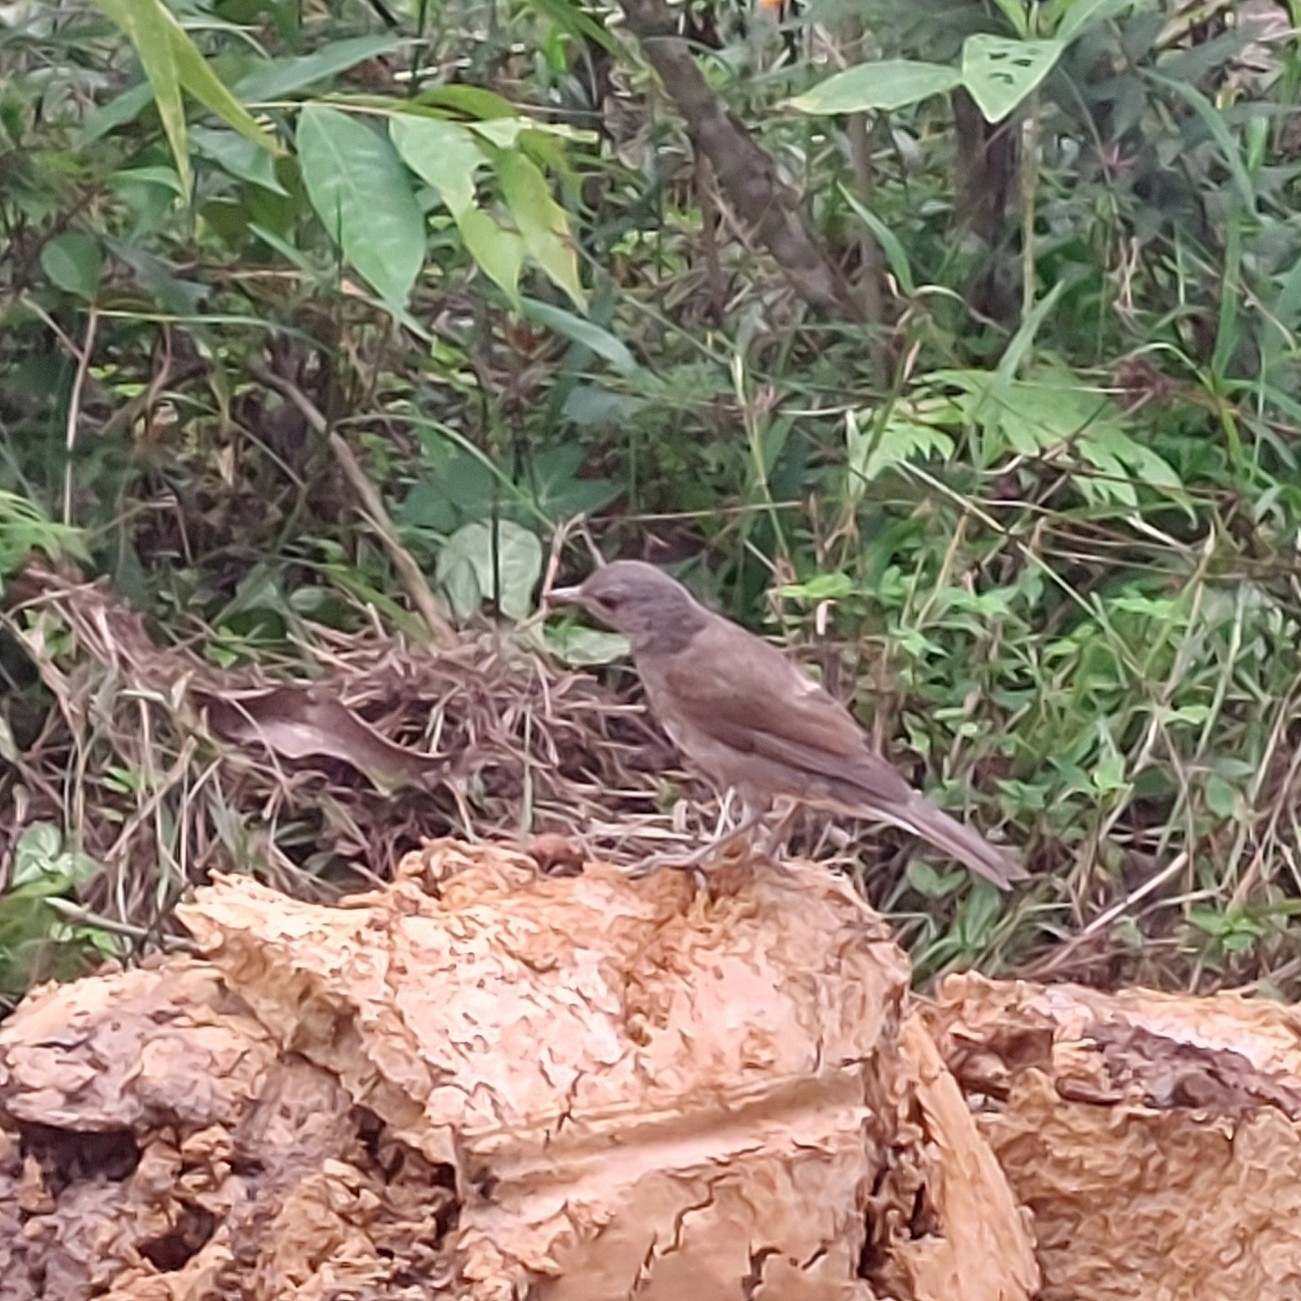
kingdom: Animalia
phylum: Chordata
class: Aves
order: Passeriformes
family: Turdidae
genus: Turdus
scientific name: Turdus leucomelas
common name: Pale-breasted thrush
